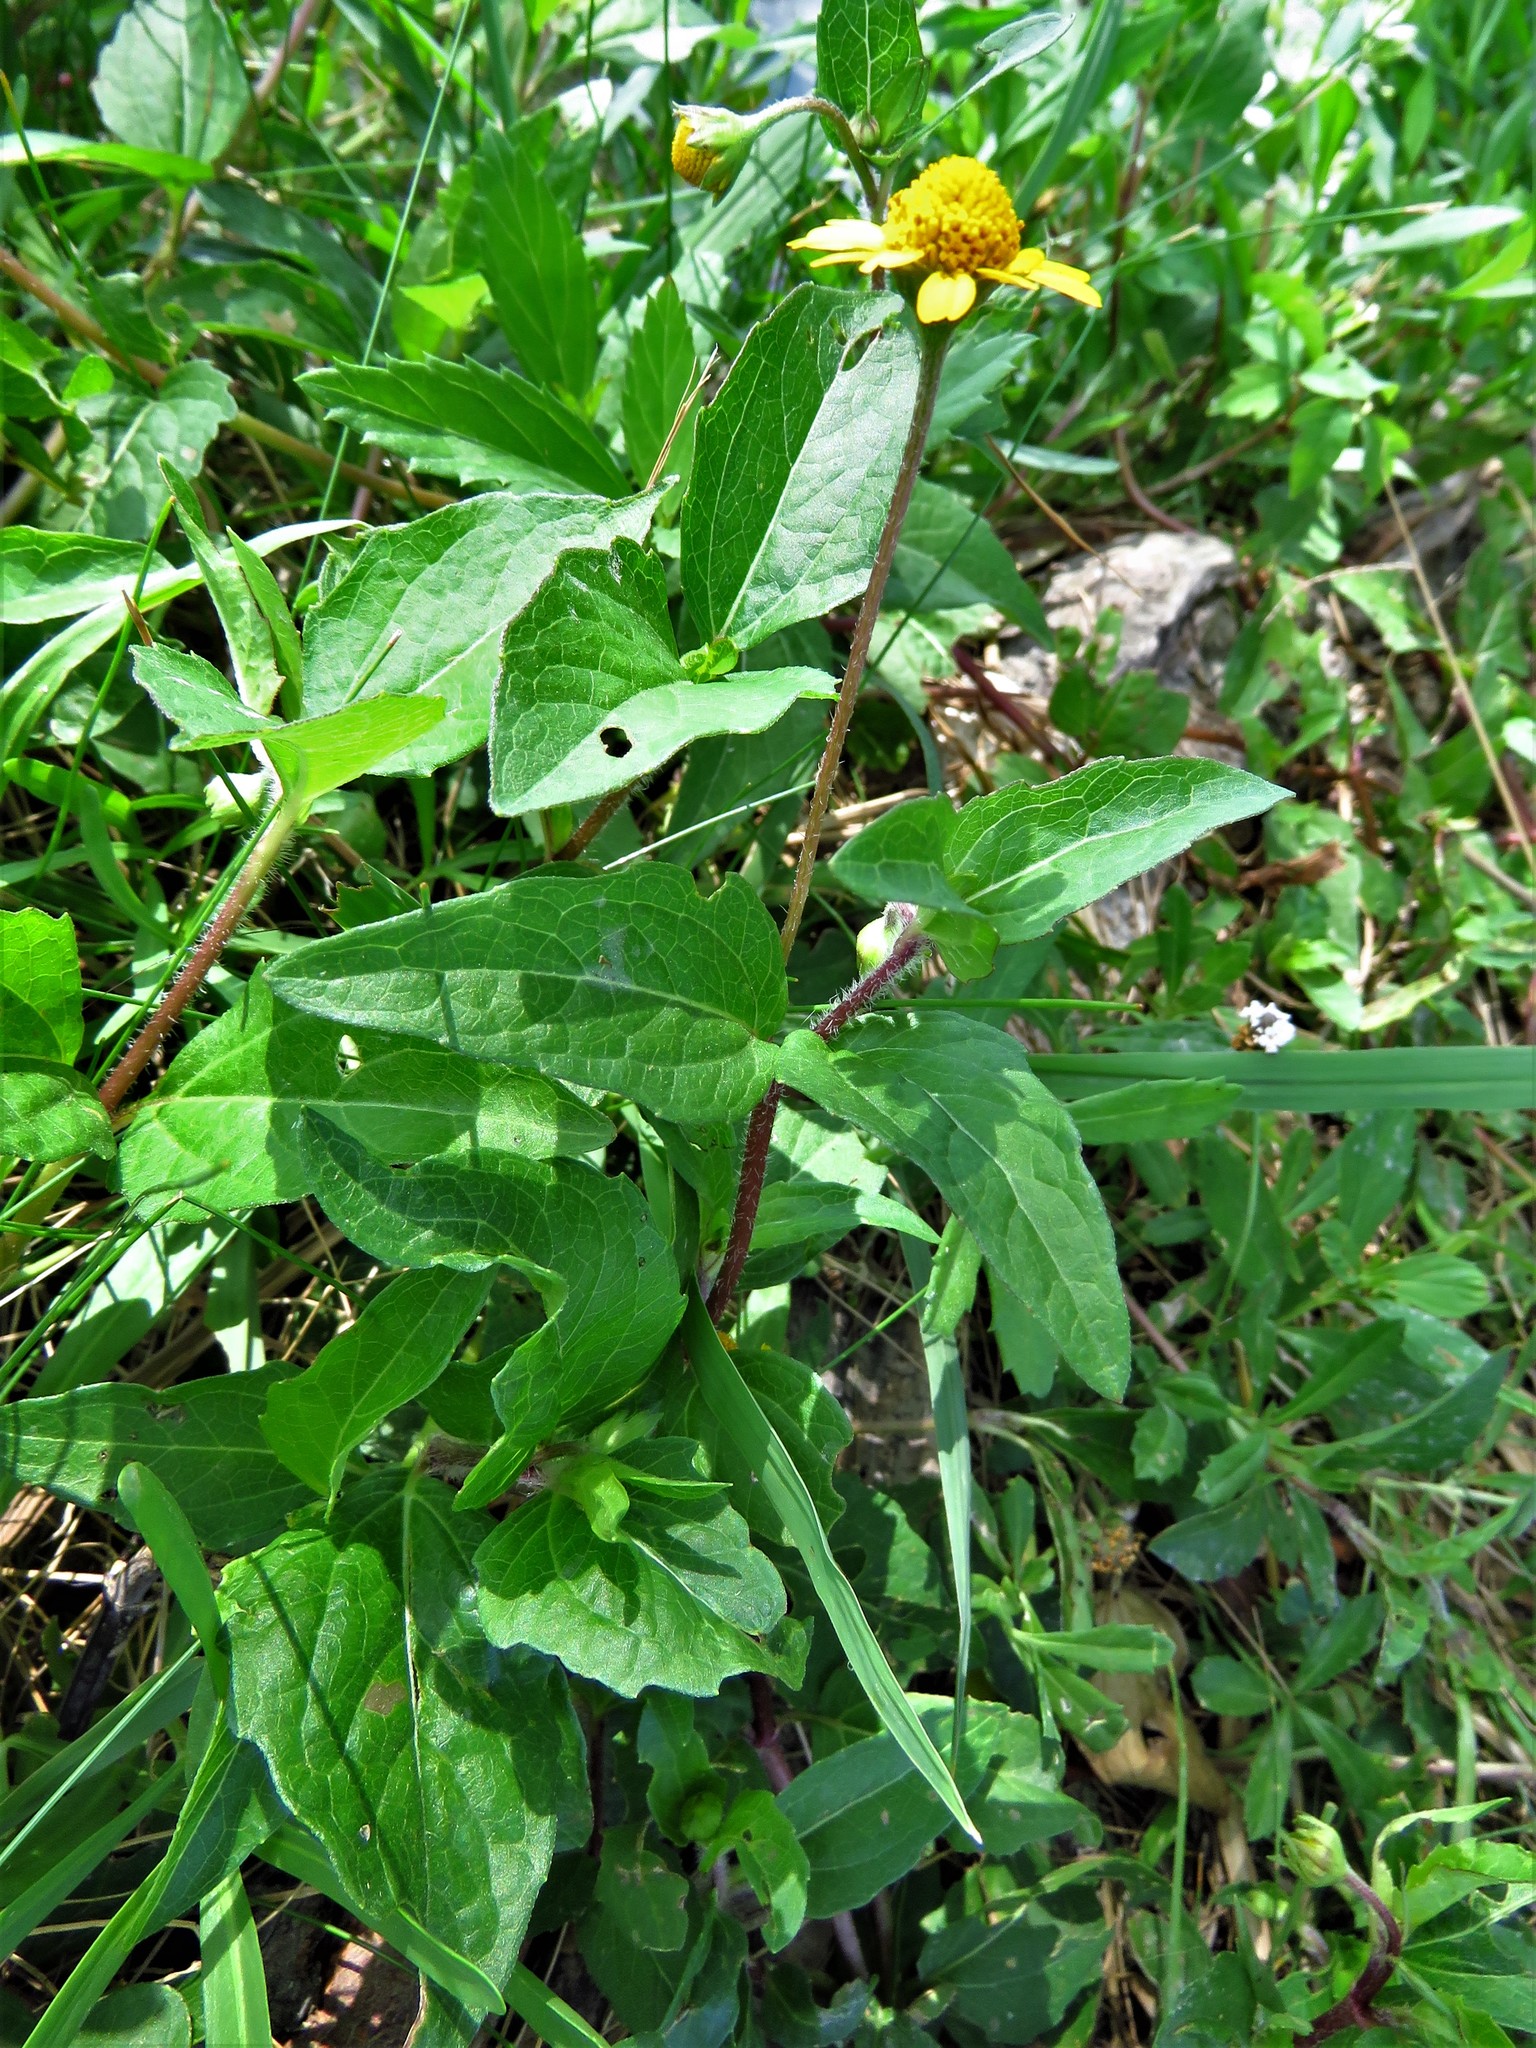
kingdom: Plantae
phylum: Tracheophyta
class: Magnoliopsida
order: Asterales
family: Asteraceae
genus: Acmella
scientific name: Acmella repens
